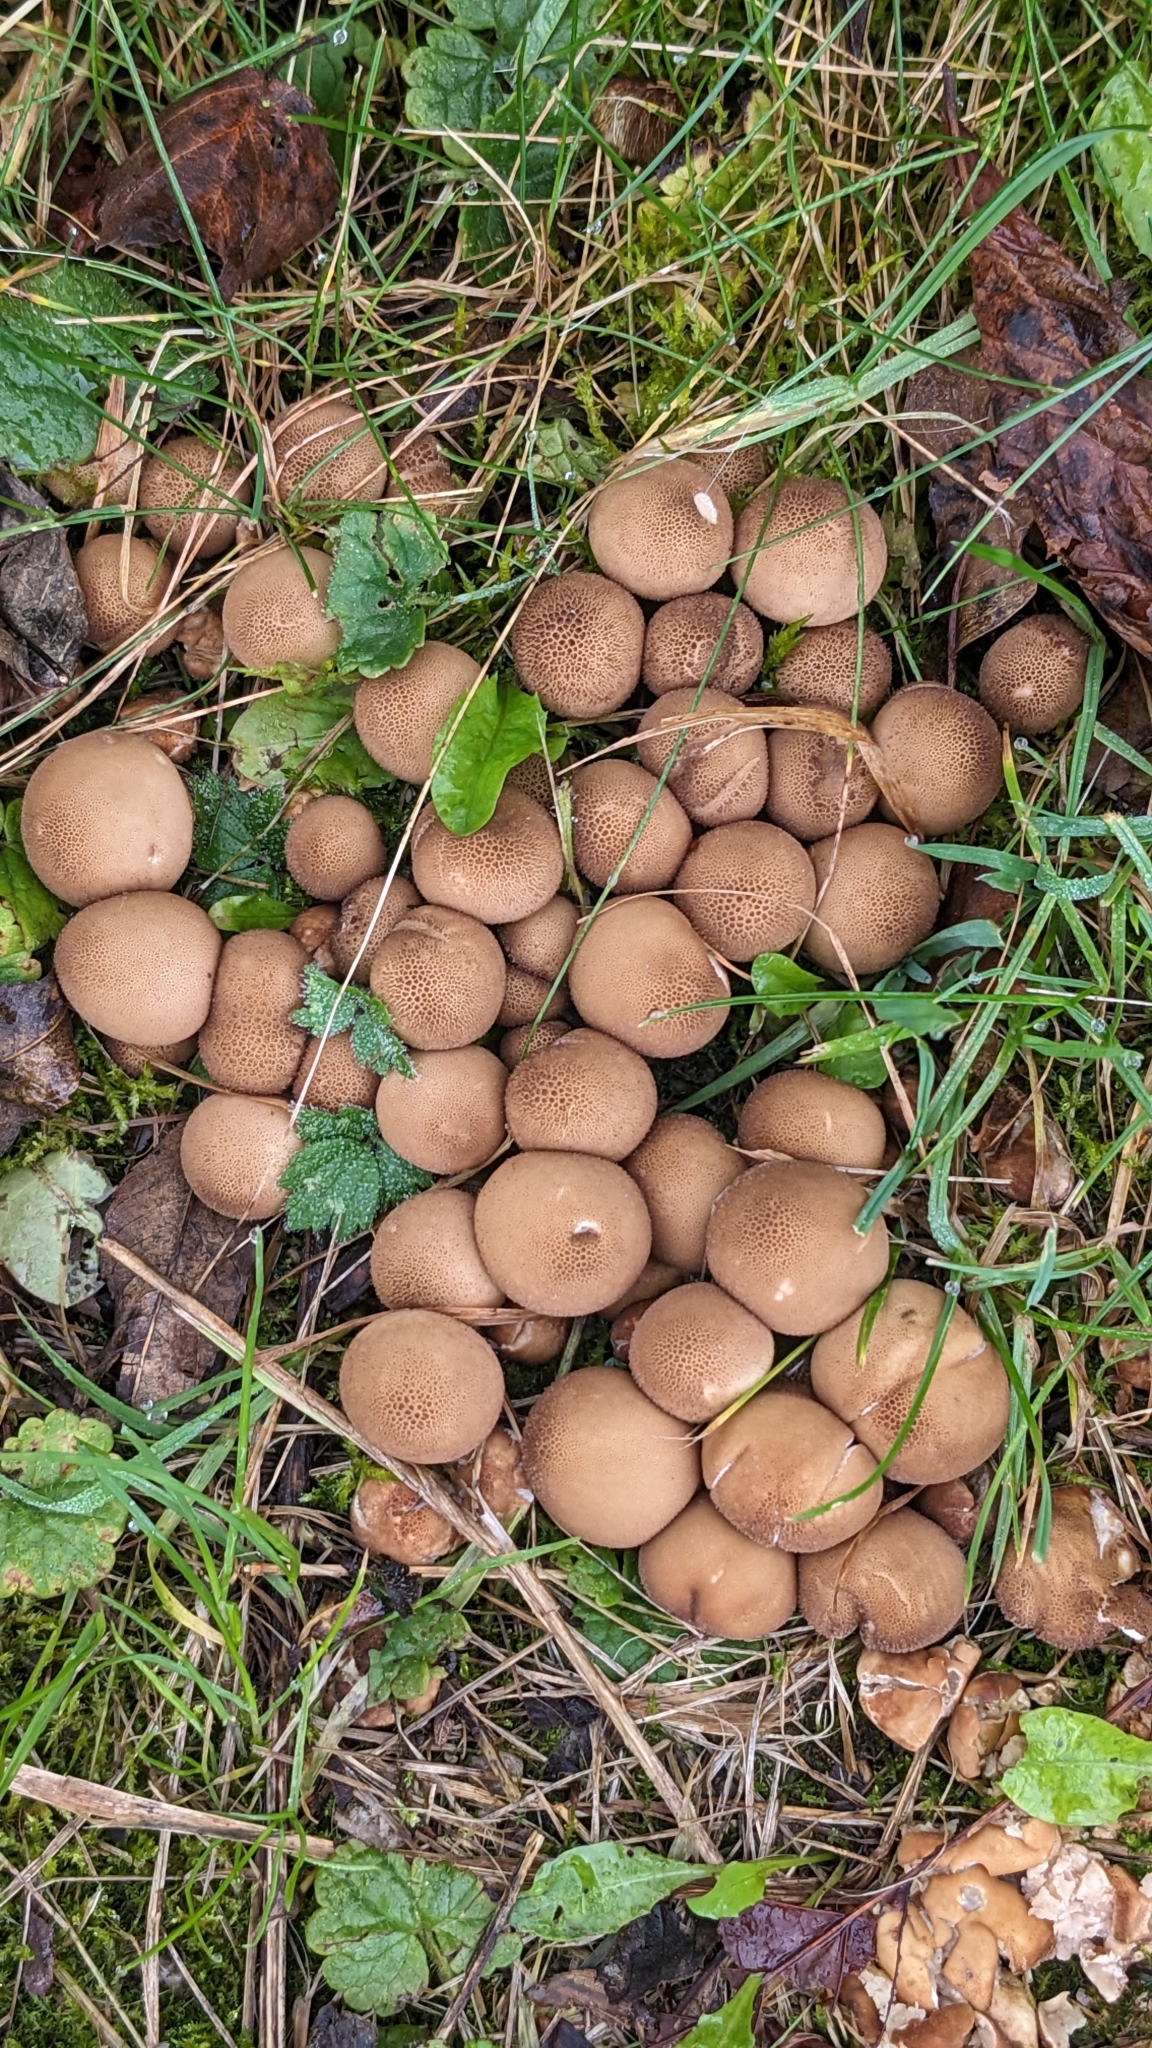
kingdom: Fungi
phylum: Basidiomycota
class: Agaricomycetes
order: Agaricales
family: Lycoperdaceae
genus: Apioperdon
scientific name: Apioperdon pyriforme
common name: Pear-shaped puffball
